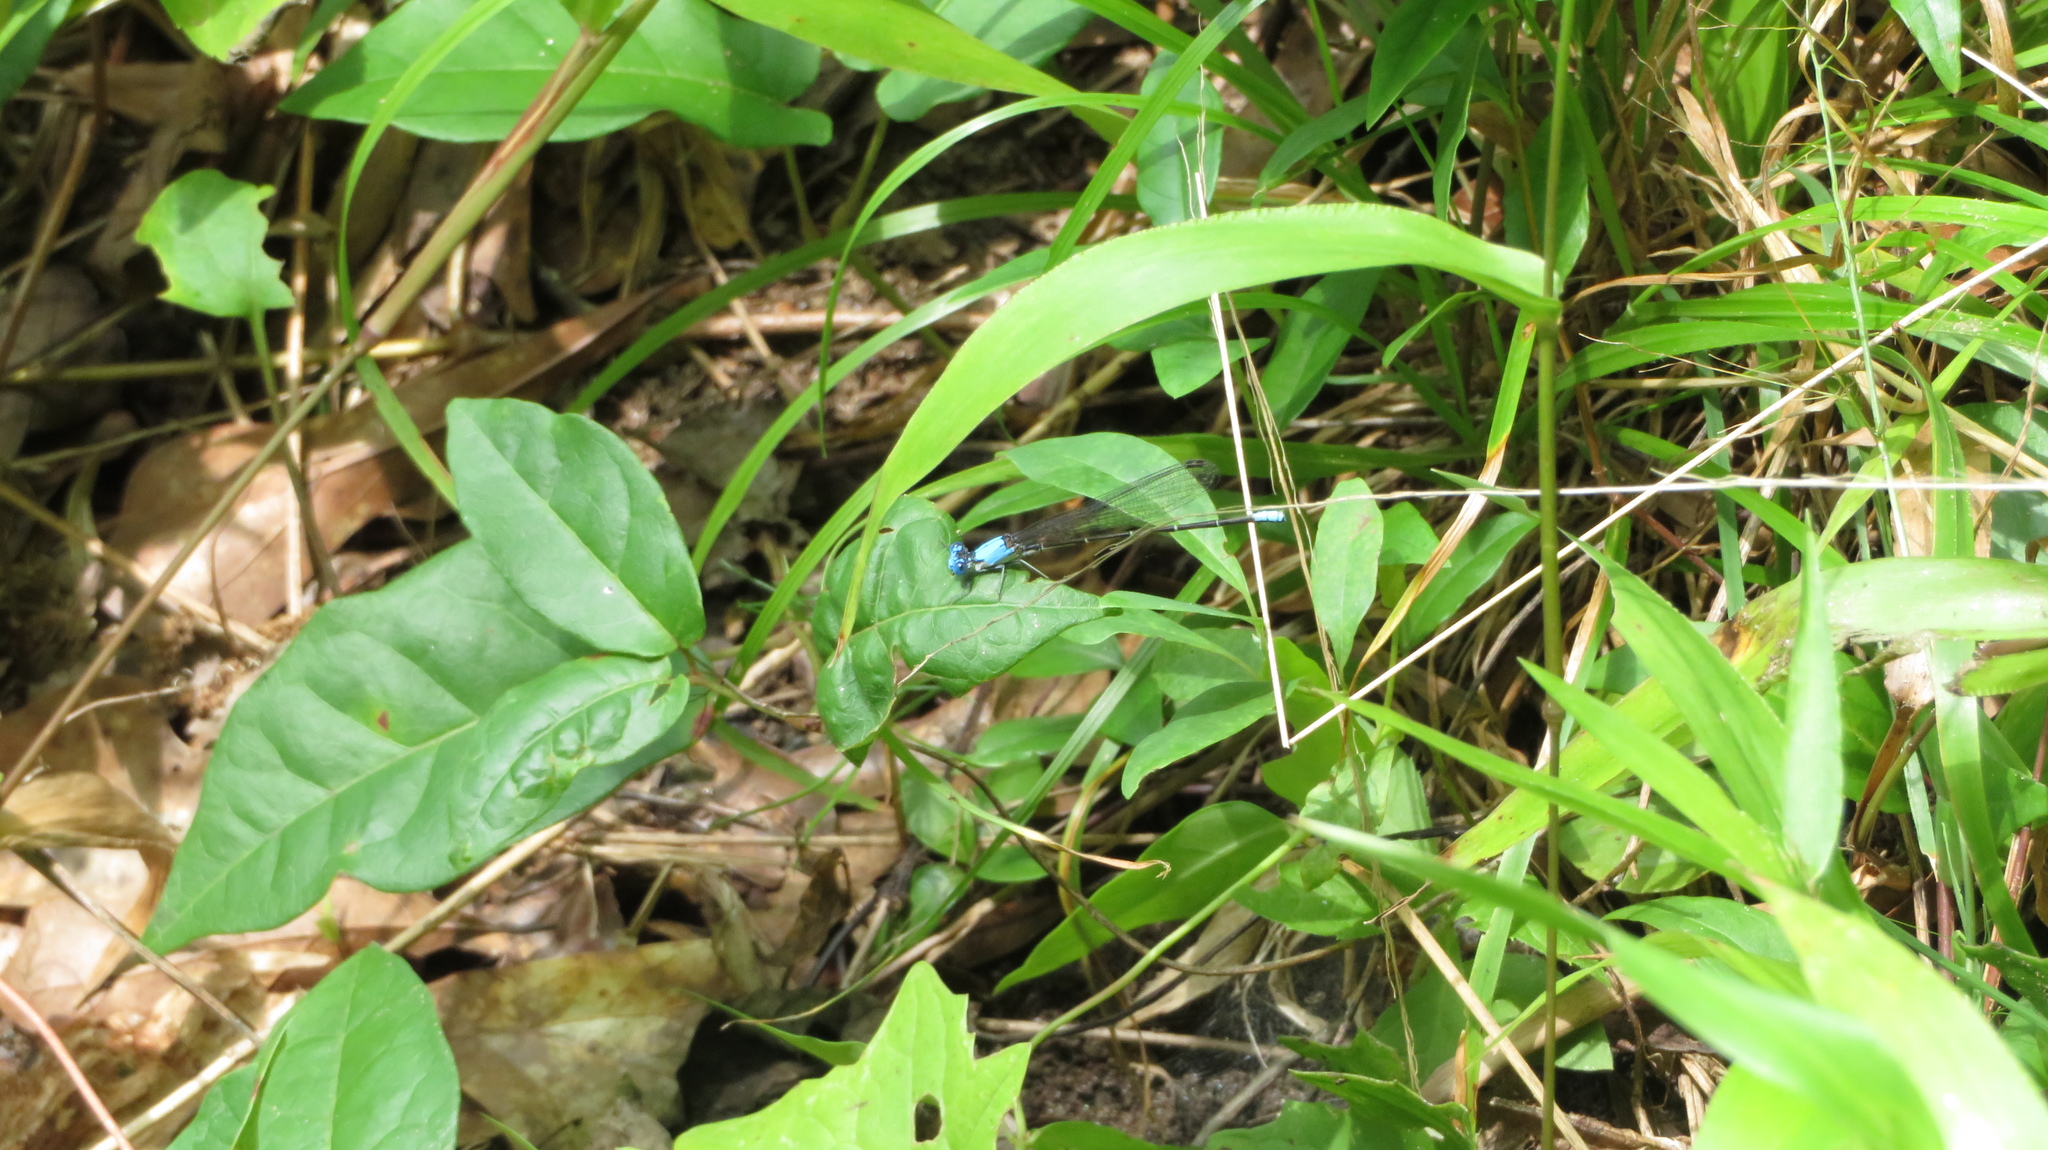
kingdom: Animalia
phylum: Arthropoda
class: Insecta
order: Odonata
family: Coenagrionidae
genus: Argia
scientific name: Argia apicalis
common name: Blue-fronted dancer
